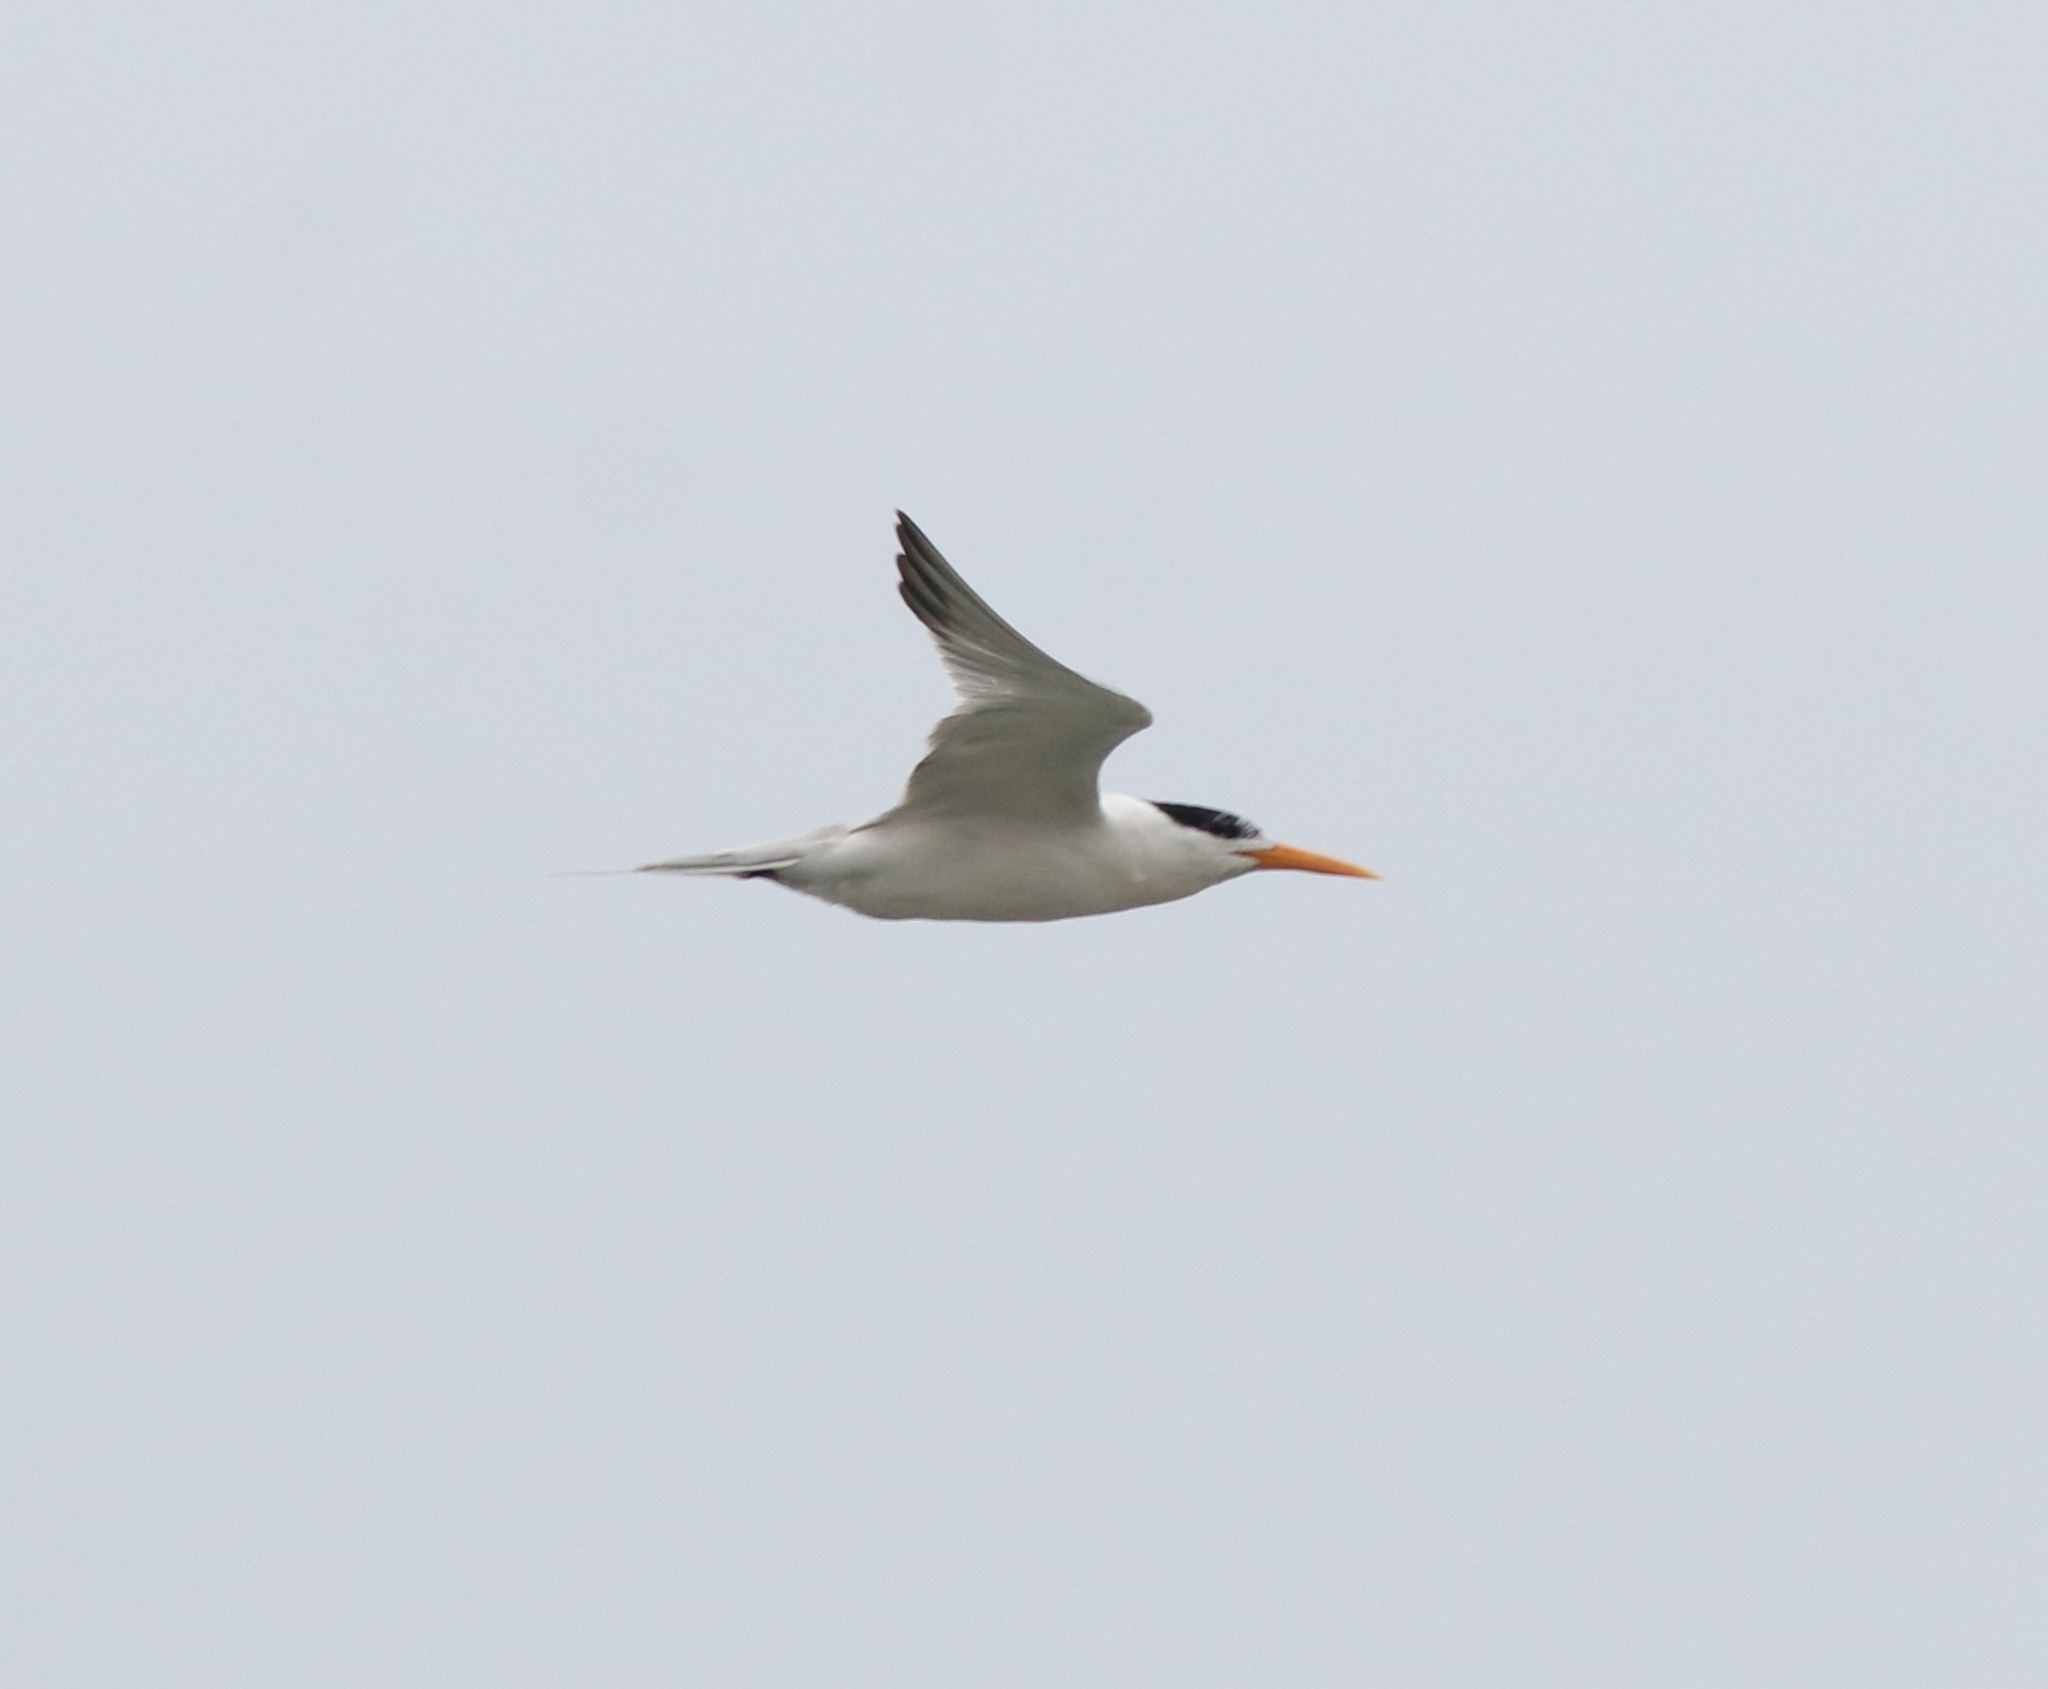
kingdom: Animalia
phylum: Chordata
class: Aves
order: Charadriiformes
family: Laridae
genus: Thalasseus
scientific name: Thalasseus bengalensis
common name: Lesser crested tern
